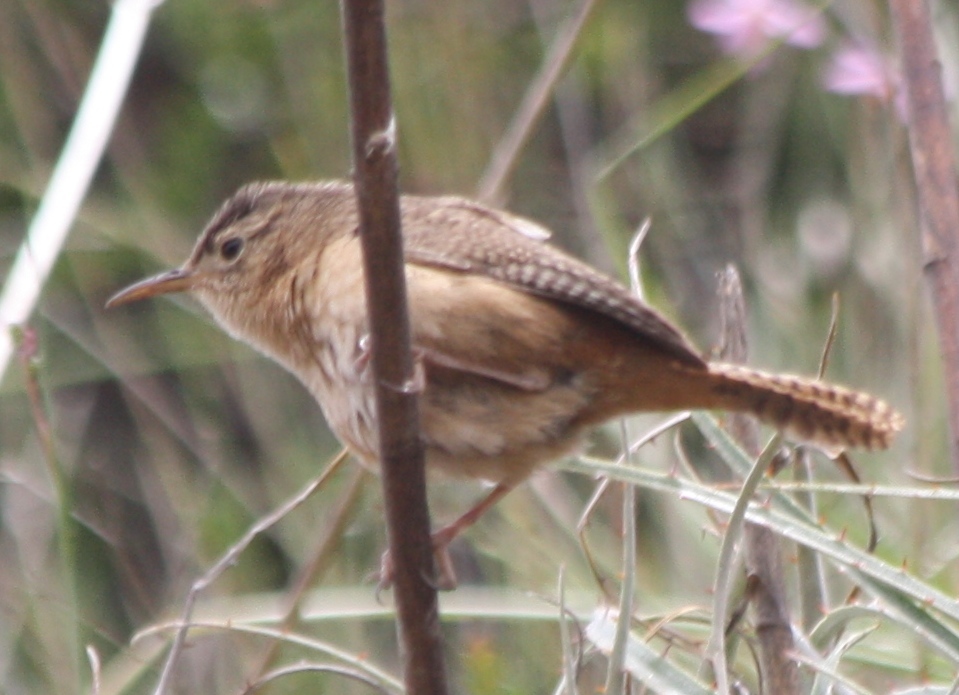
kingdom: Animalia
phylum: Chordata
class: Aves
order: Passeriformes
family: Troglodytidae
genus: Troglodytes
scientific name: Troglodytes aedon
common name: House wren
